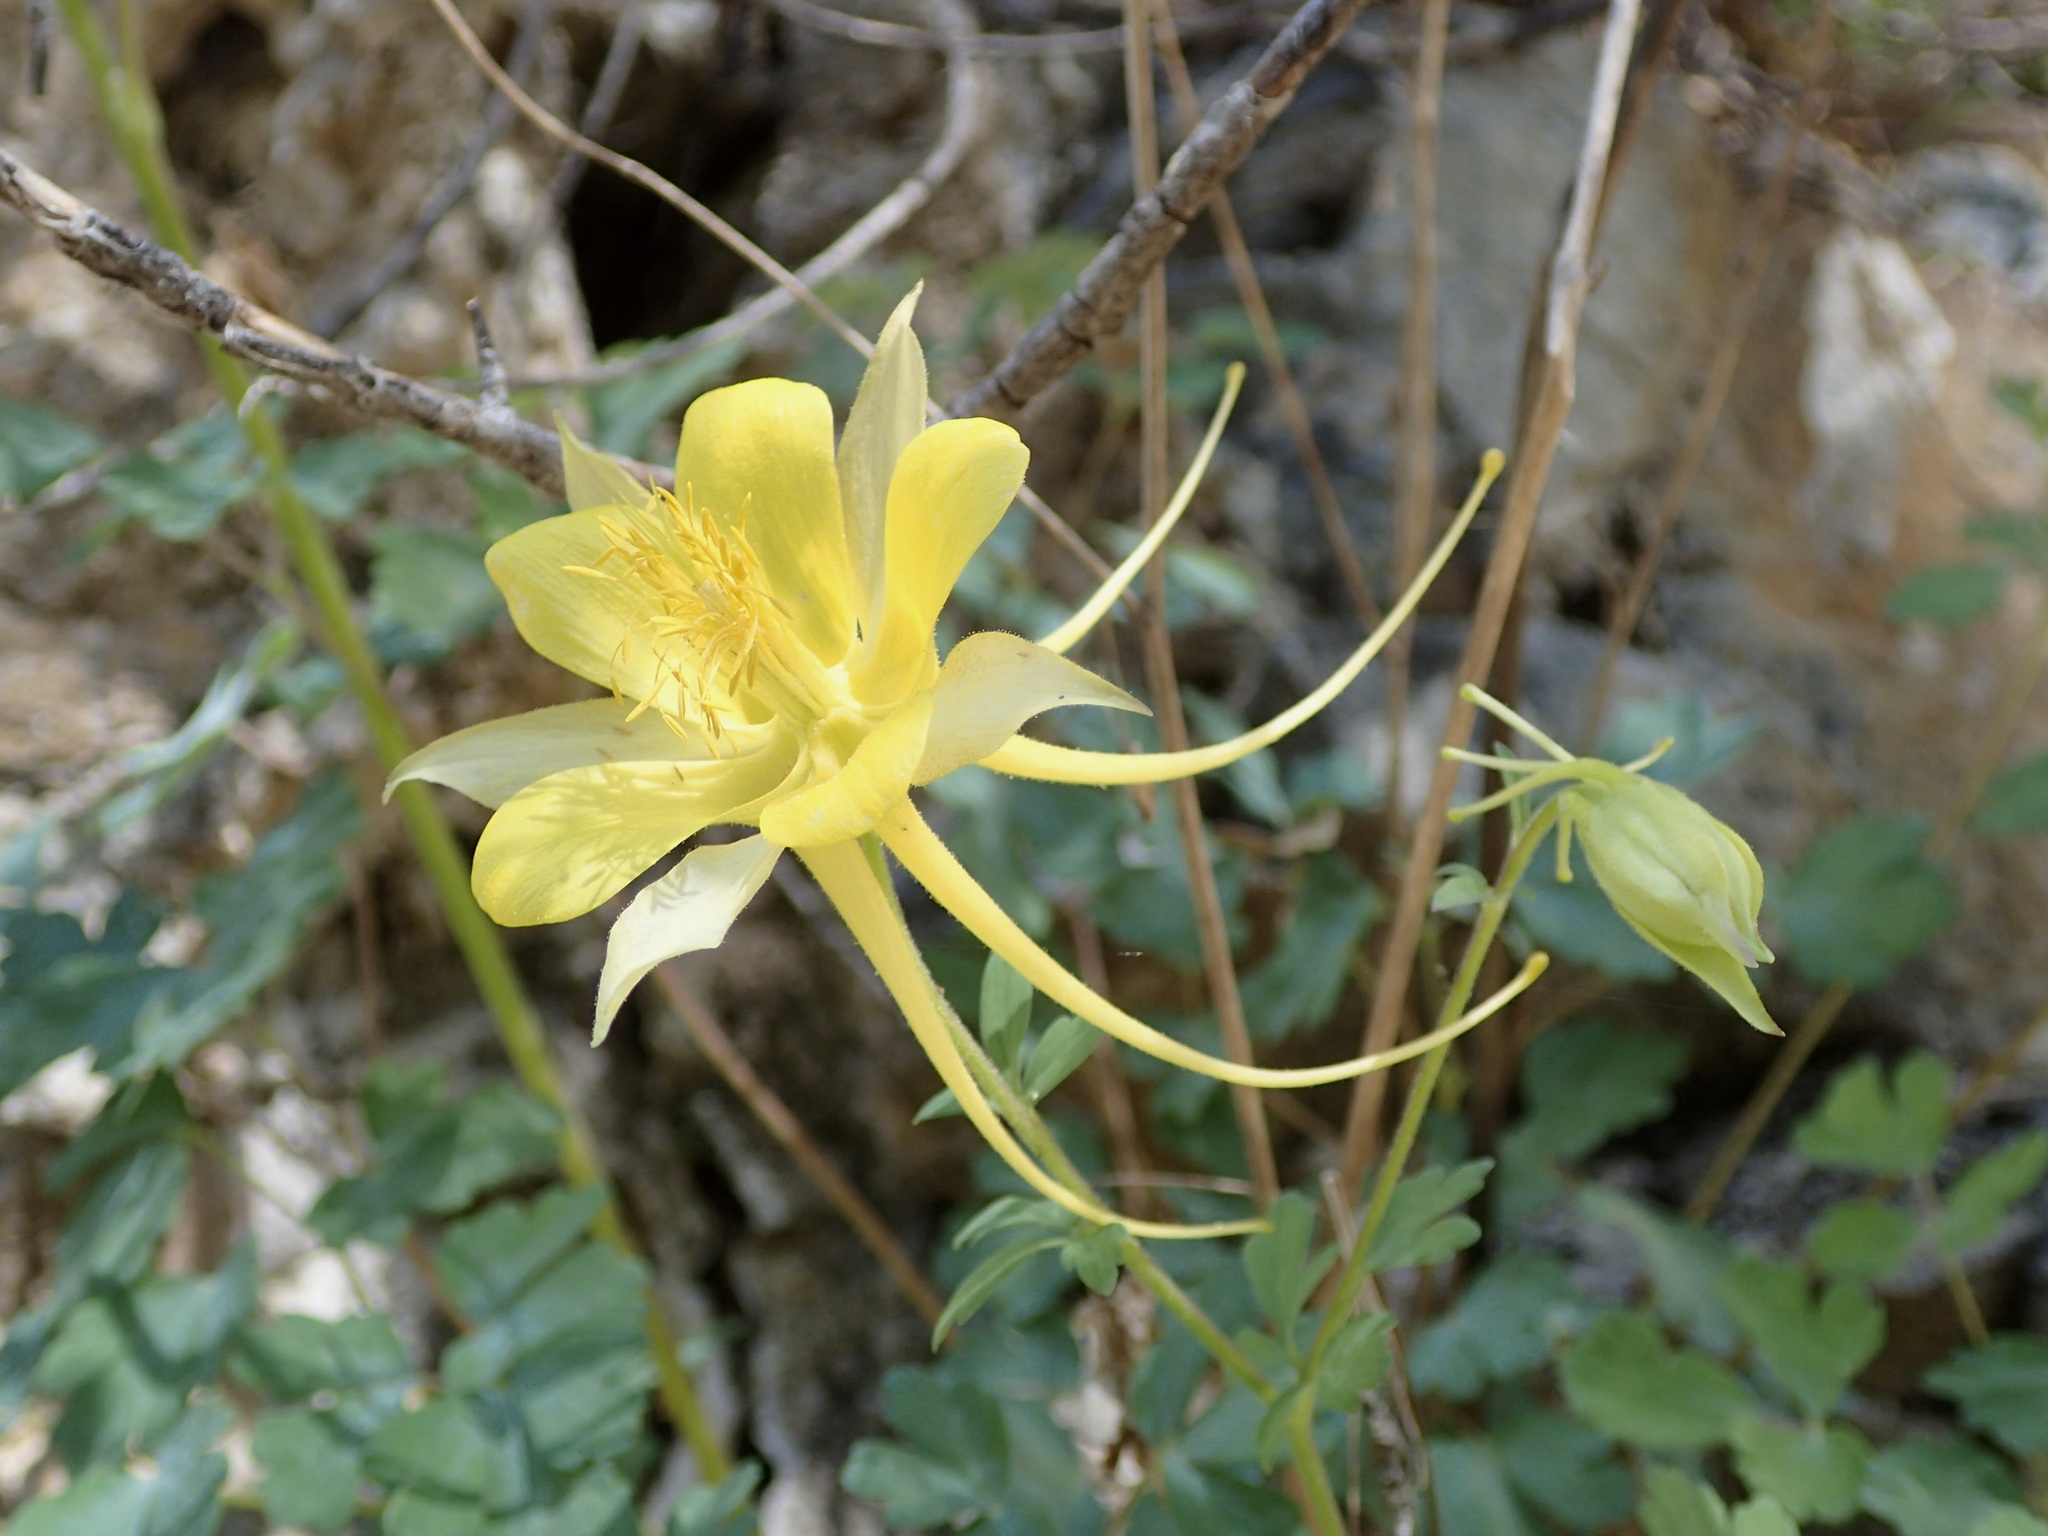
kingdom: Plantae
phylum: Tracheophyta
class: Magnoliopsida
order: Ranunculales
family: Ranunculaceae
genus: Aquilegia
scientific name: Aquilegia chrysantha
